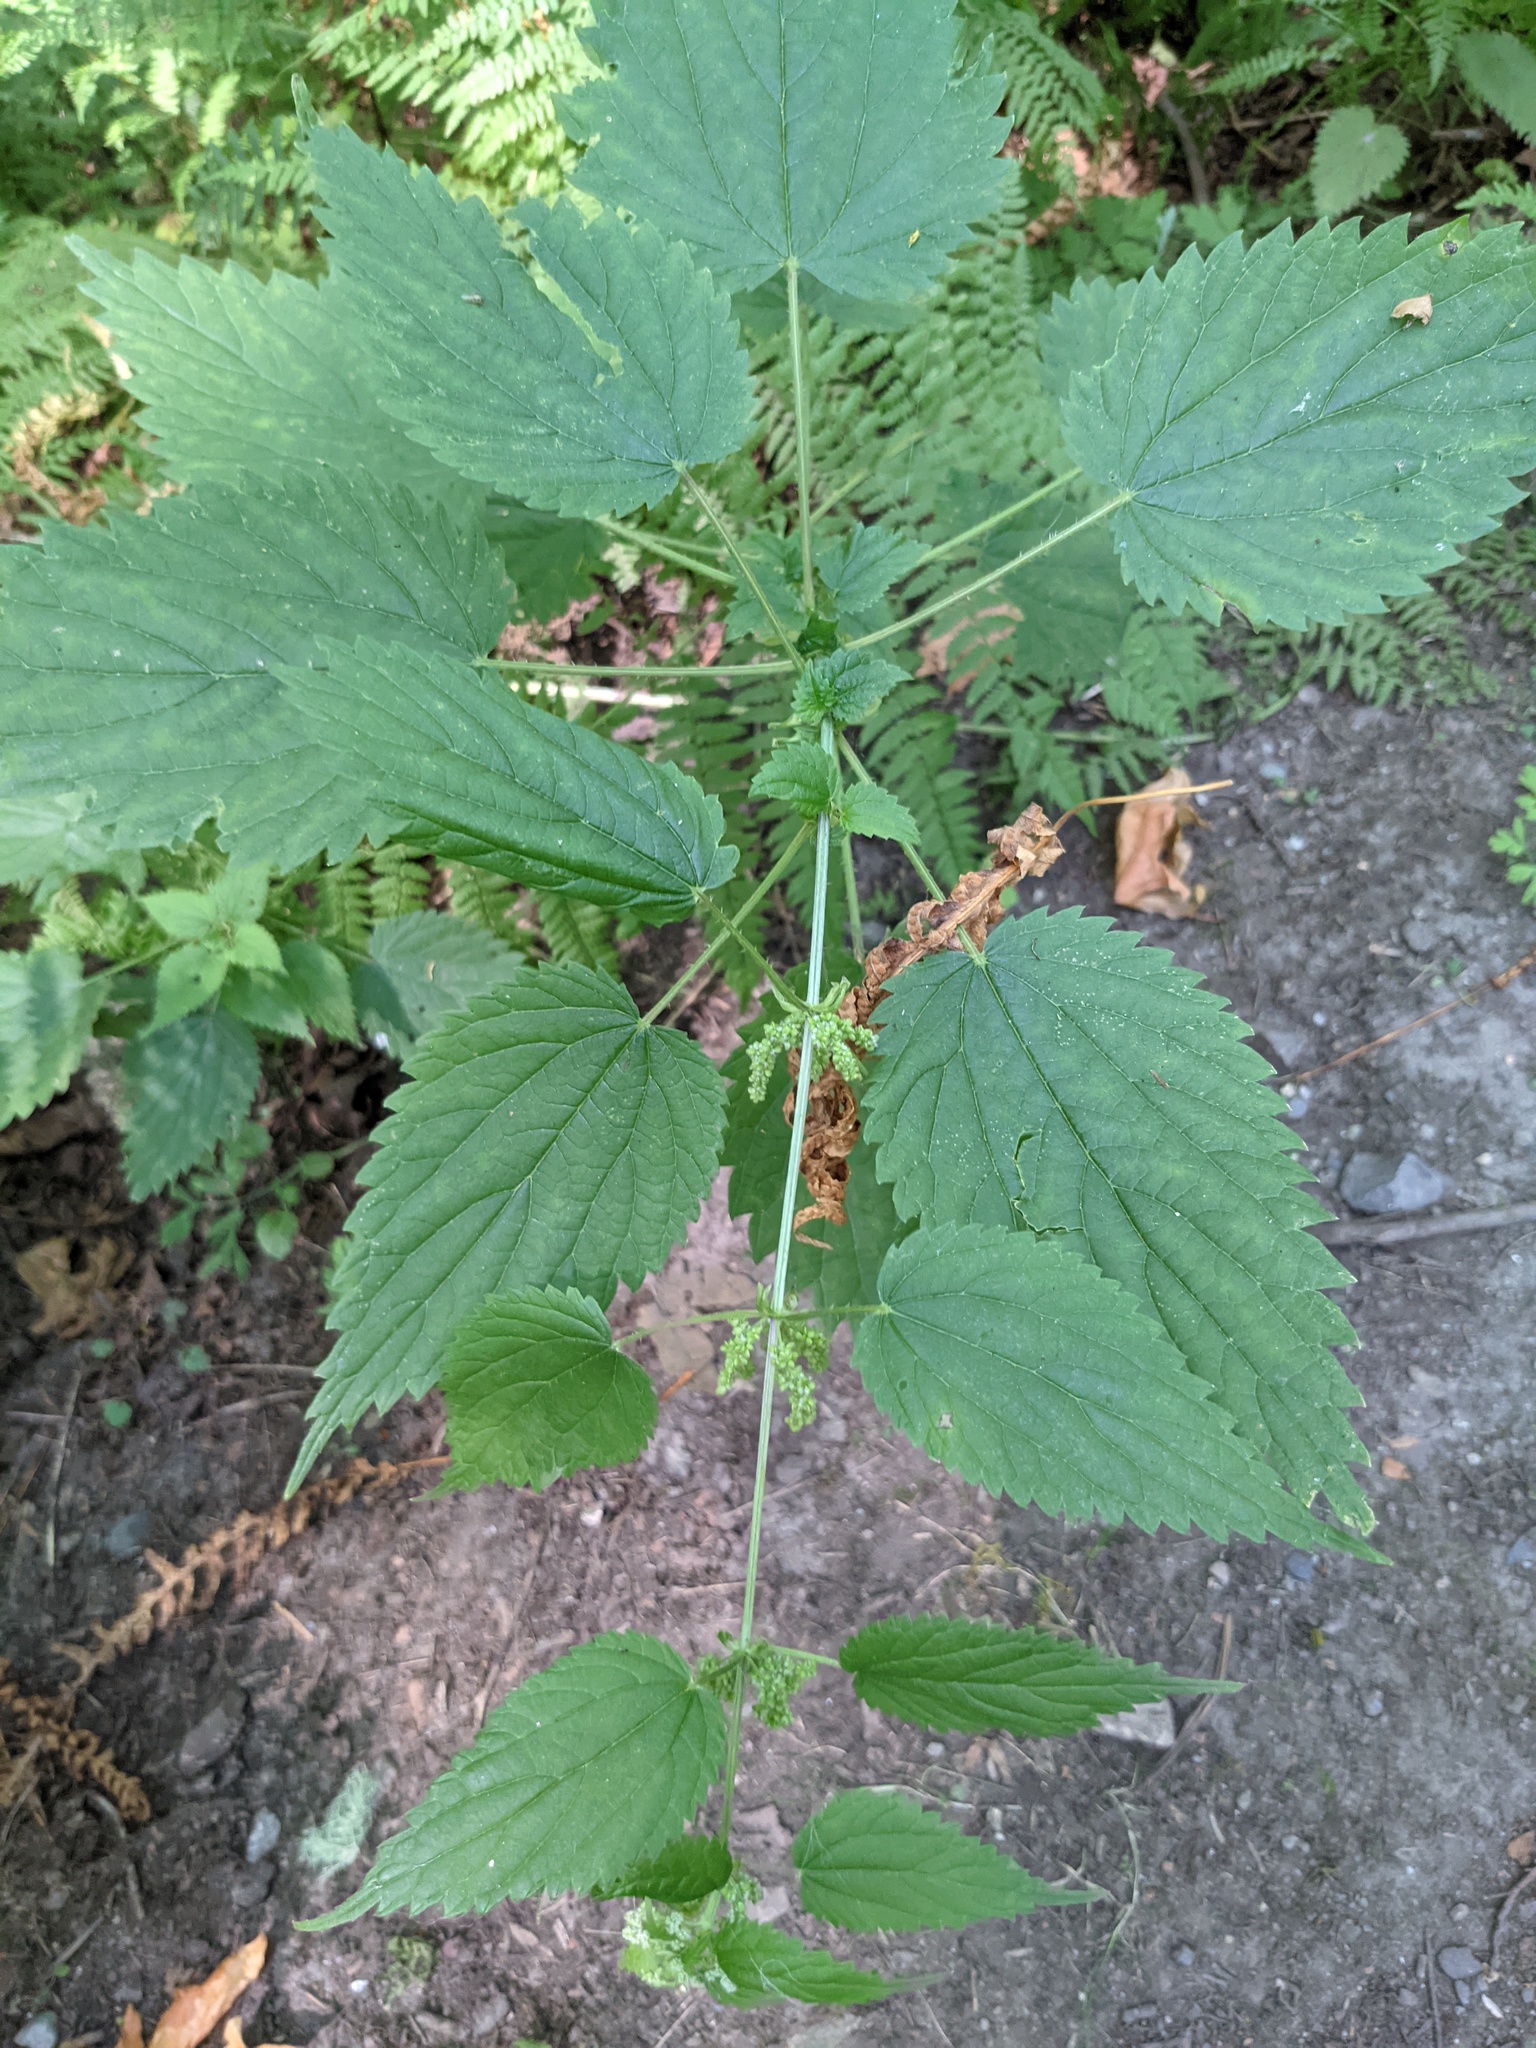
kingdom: Plantae
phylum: Tracheophyta
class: Magnoliopsida
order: Rosales
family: Urticaceae
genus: Boehmeria
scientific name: Boehmeria cylindrica
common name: Bog-hemp
